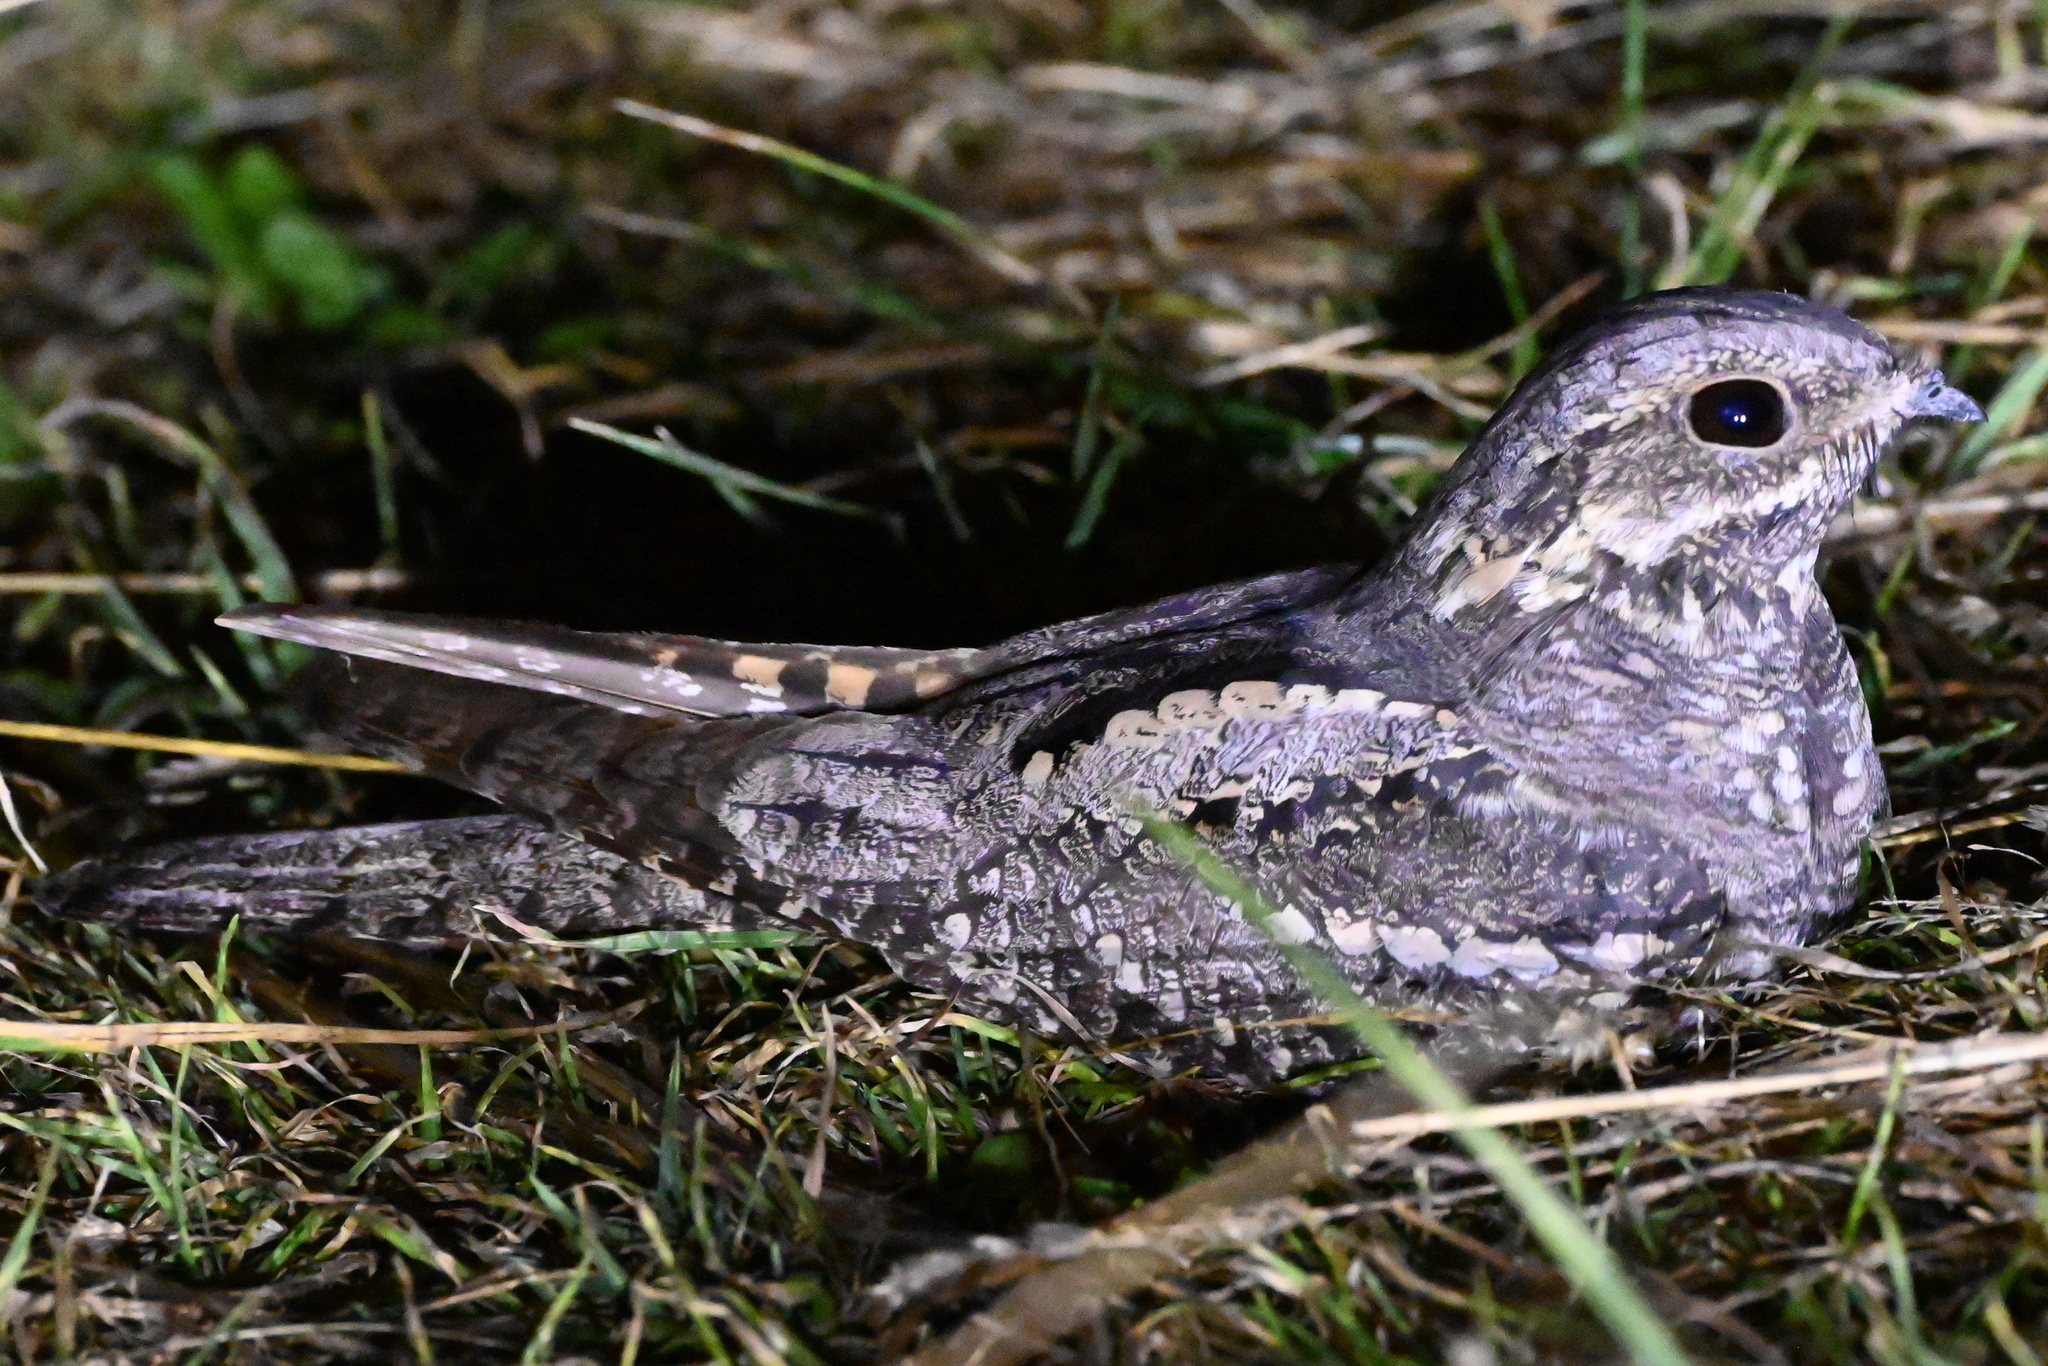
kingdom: Animalia
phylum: Chordata
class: Aves
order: Caprimulgiformes
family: Caprimulgidae
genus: Caprimulgus
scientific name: Caprimulgus europaeus
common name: European nightjar
